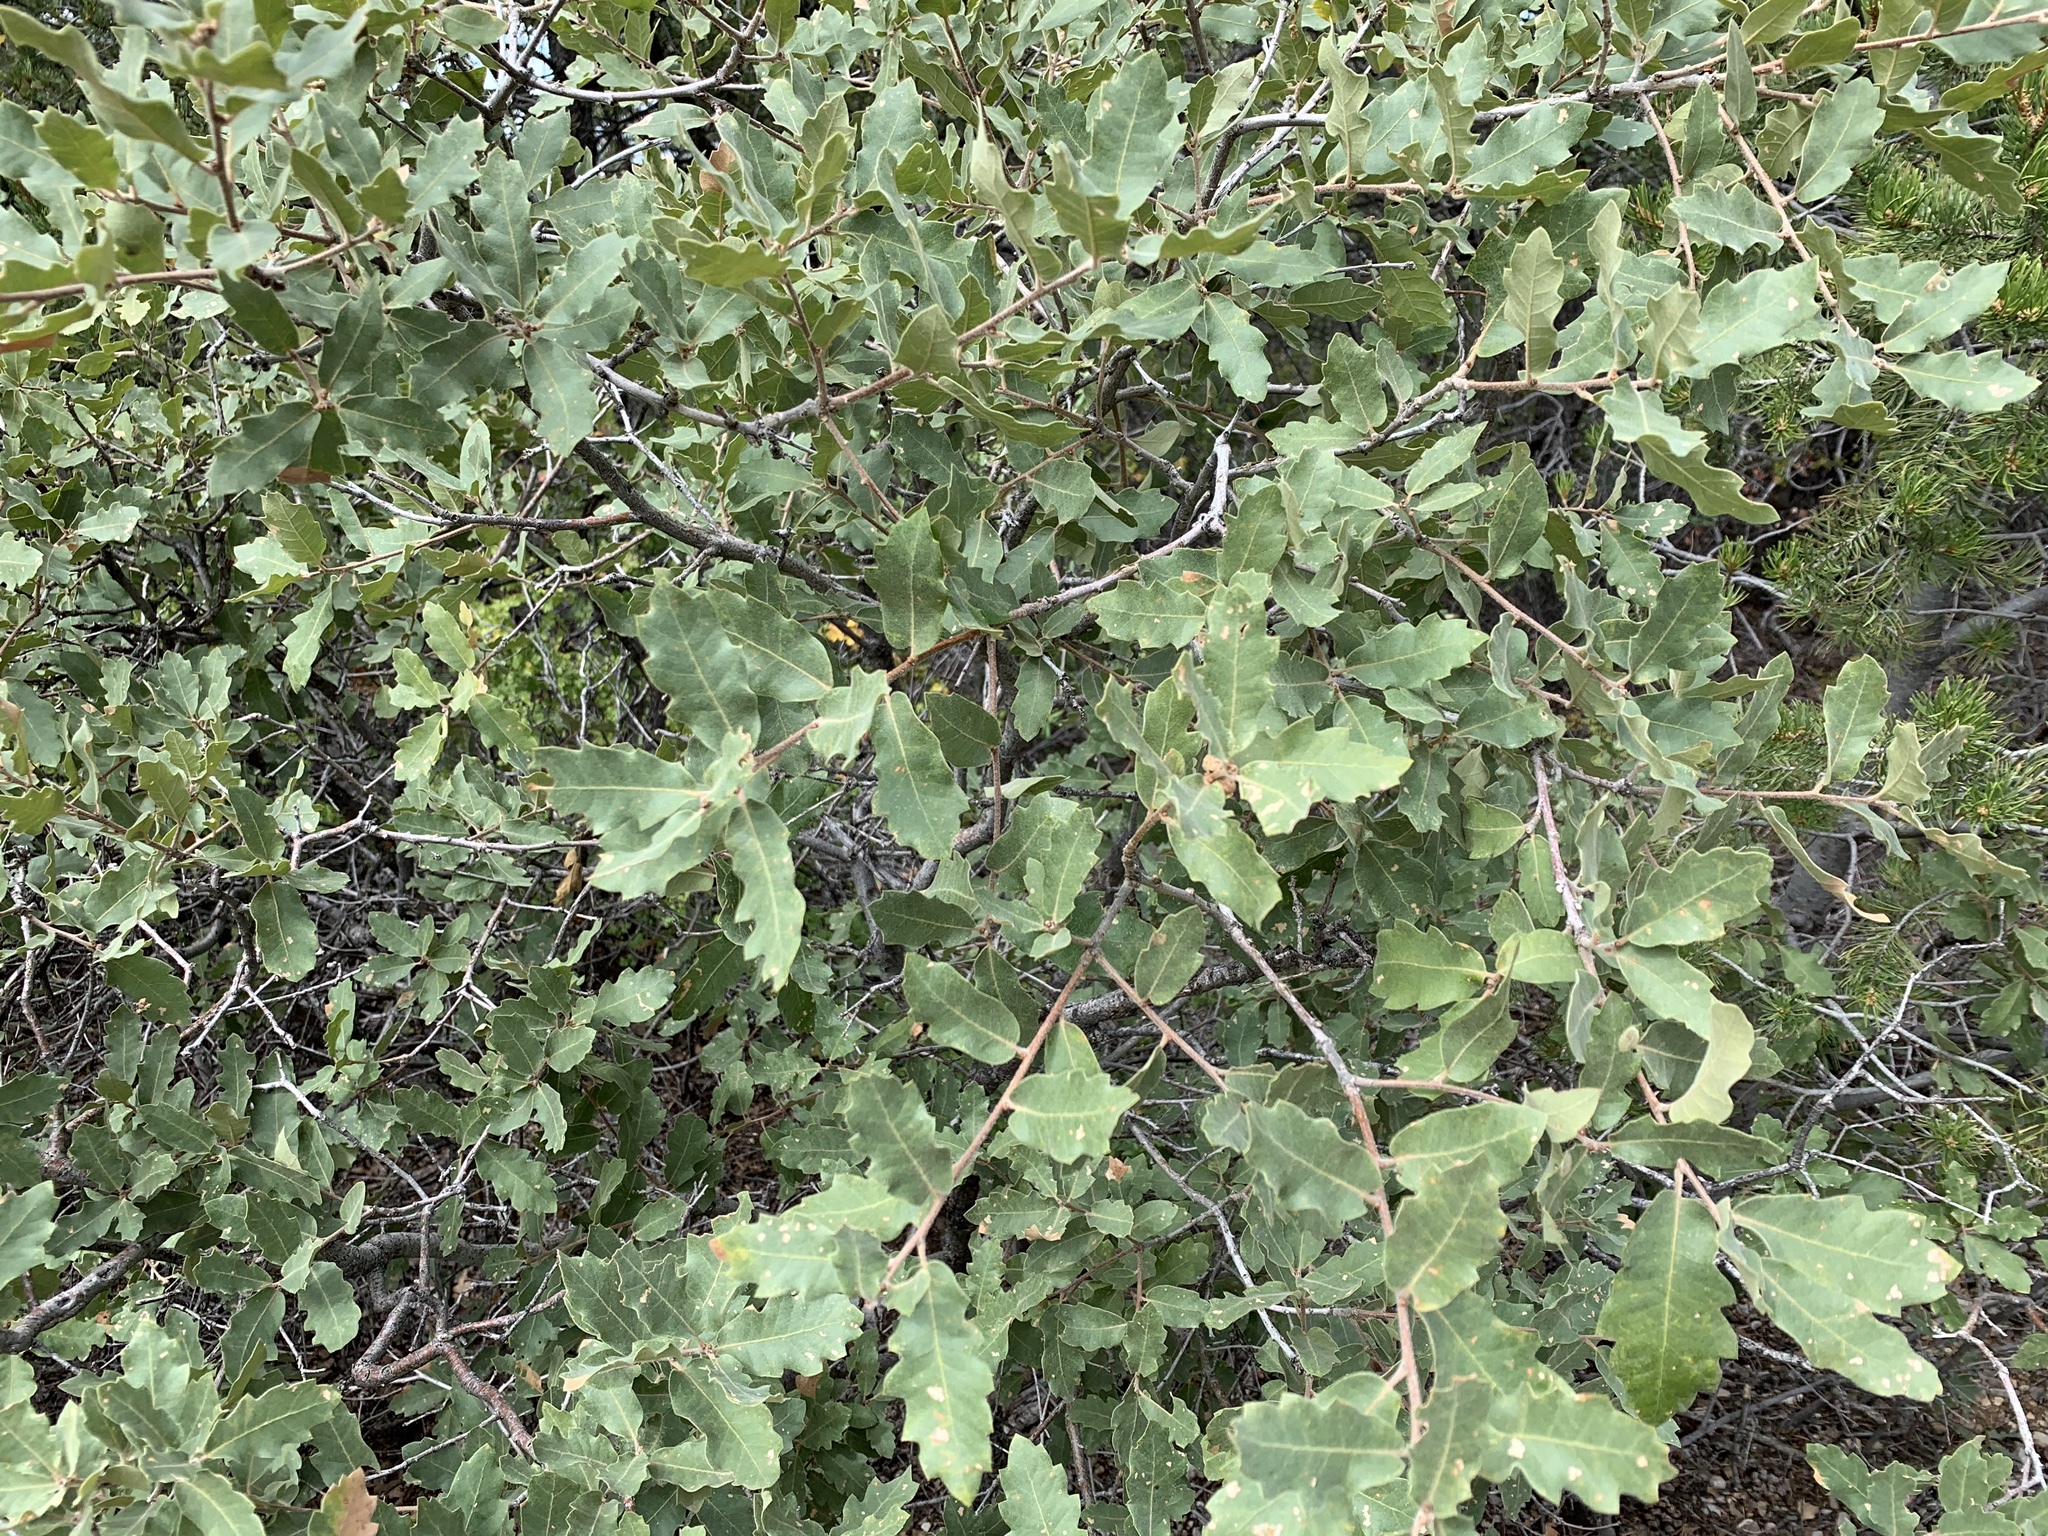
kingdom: Plantae
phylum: Tracheophyta
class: Magnoliopsida
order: Fagales
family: Fagaceae
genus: Quercus
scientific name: Quercus undulata
